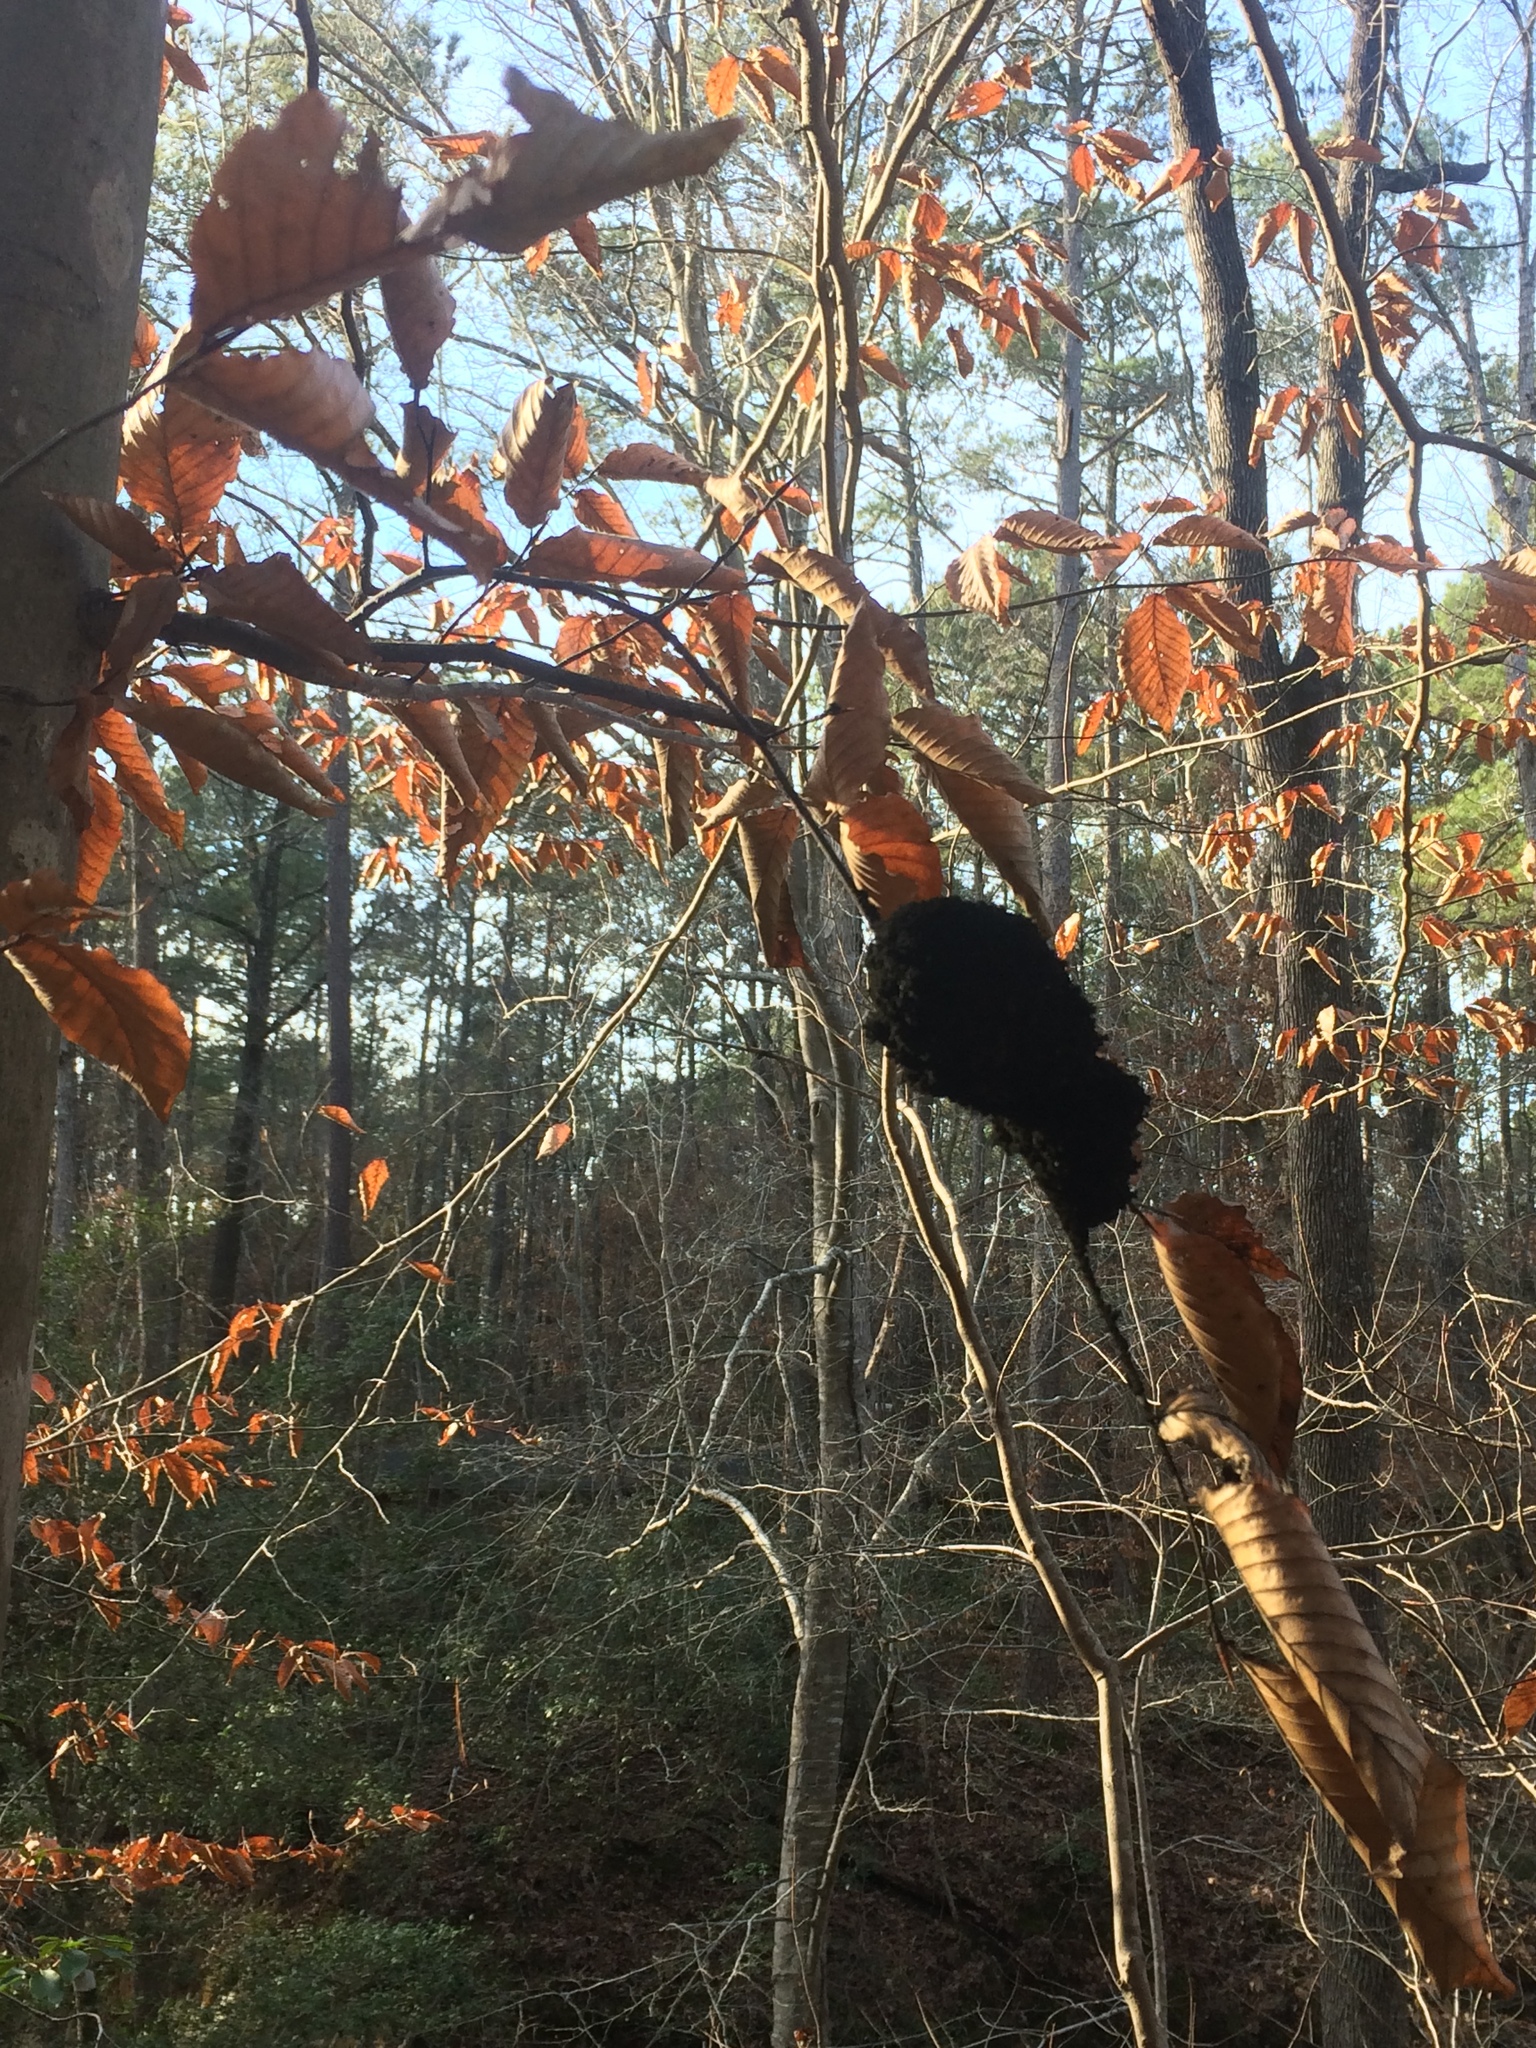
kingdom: Fungi
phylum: Ascomycota
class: Dothideomycetes
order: Capnodiales
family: Capnodiaceae
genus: Scorias
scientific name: Scorias spongiosa
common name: Black sooty mold
